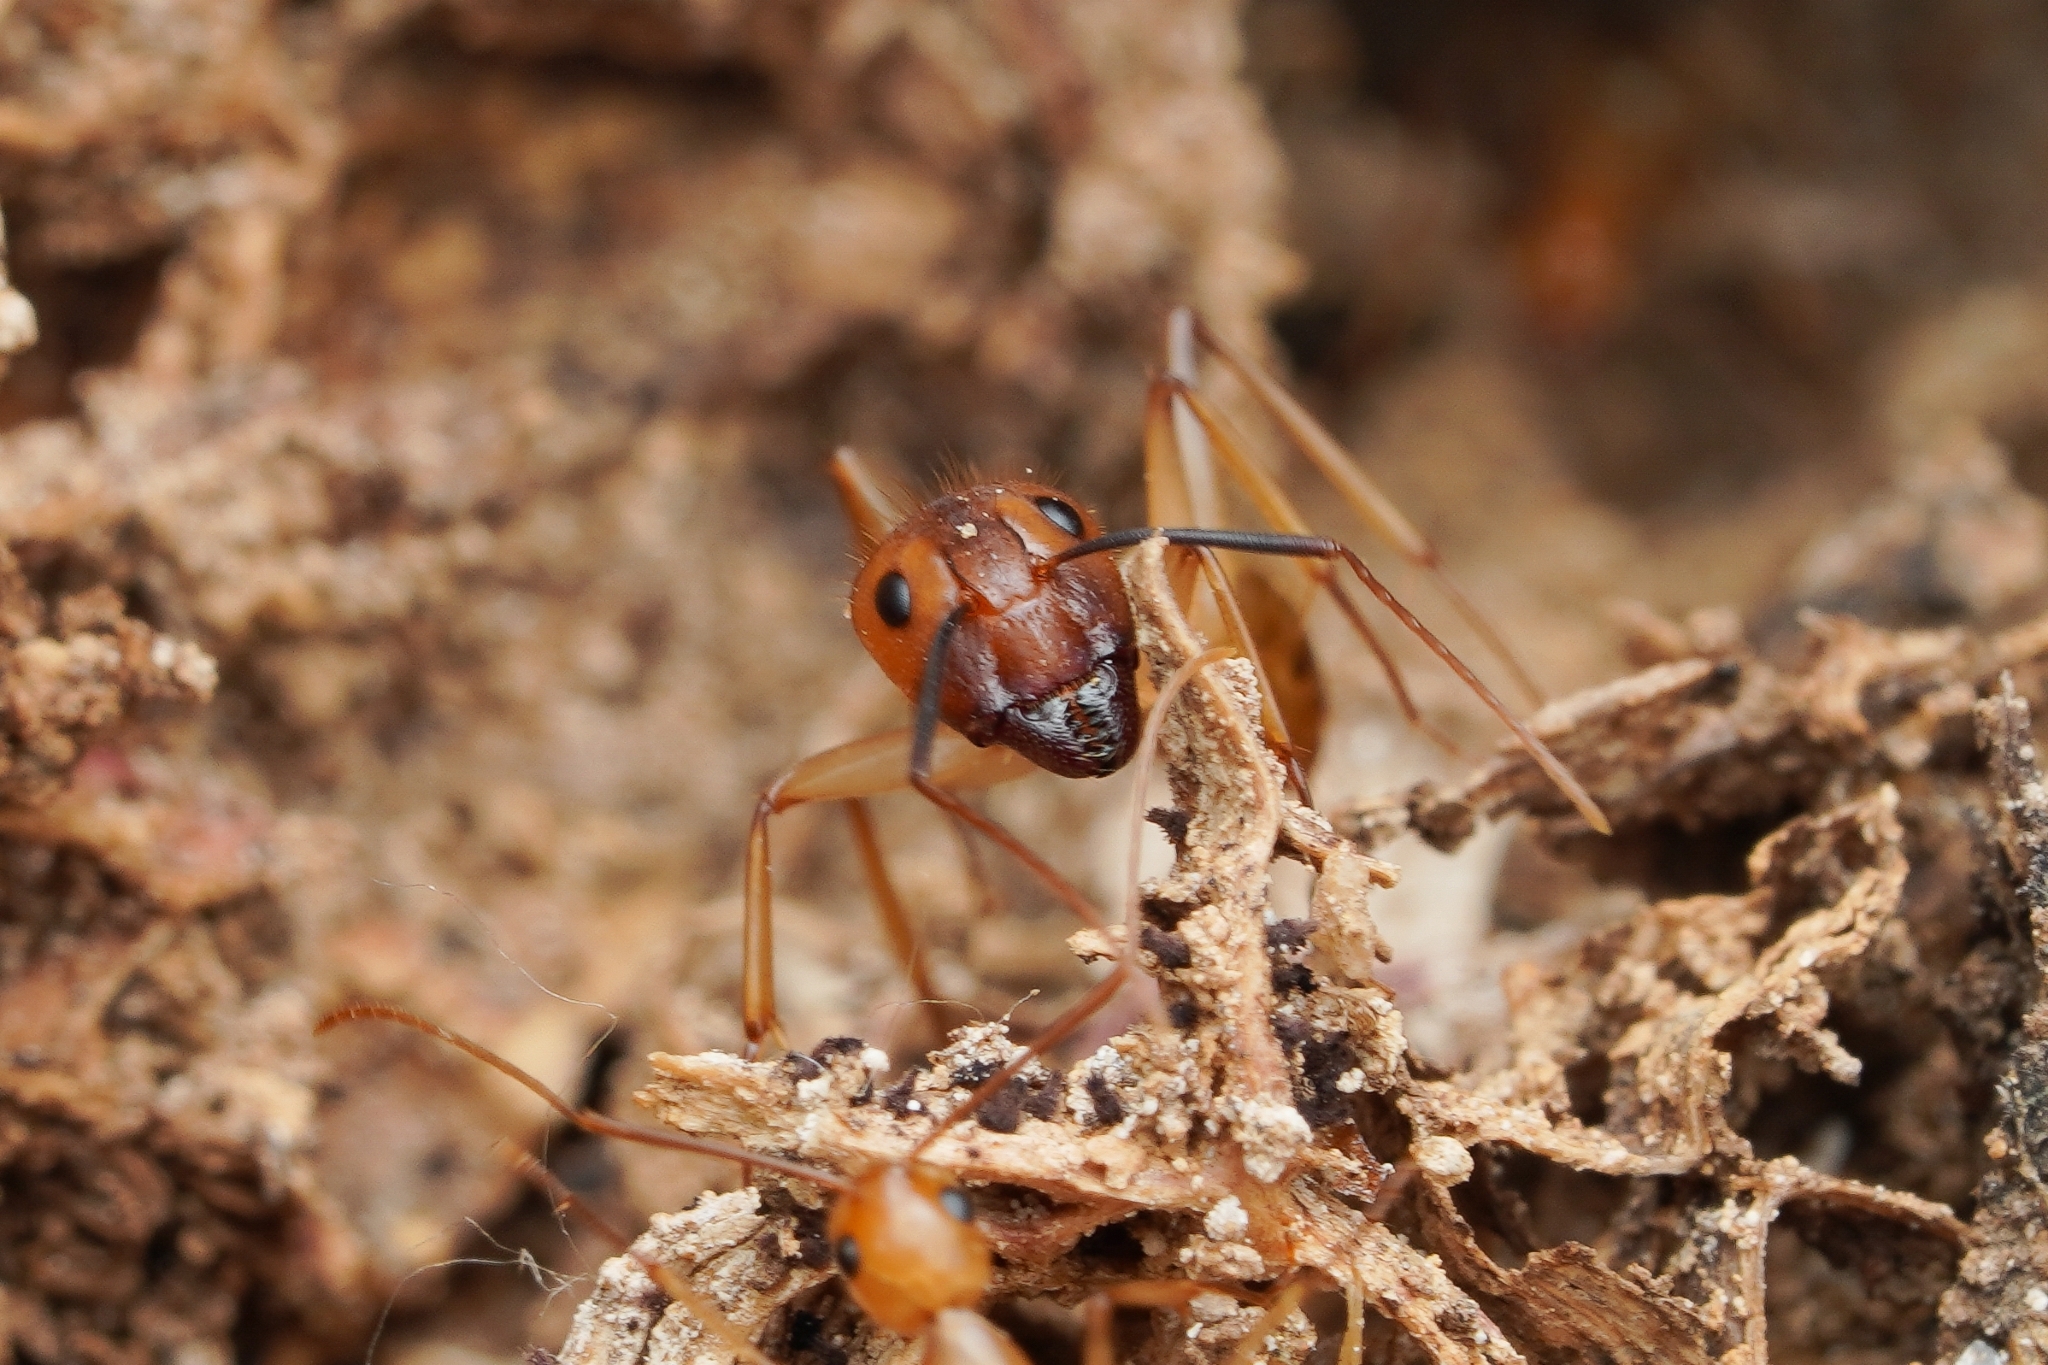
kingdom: Animalia
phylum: Arthropoda
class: Insecta
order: Hymenoptera
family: Formicidae
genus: Camponotus
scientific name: Camponotus festinatus
